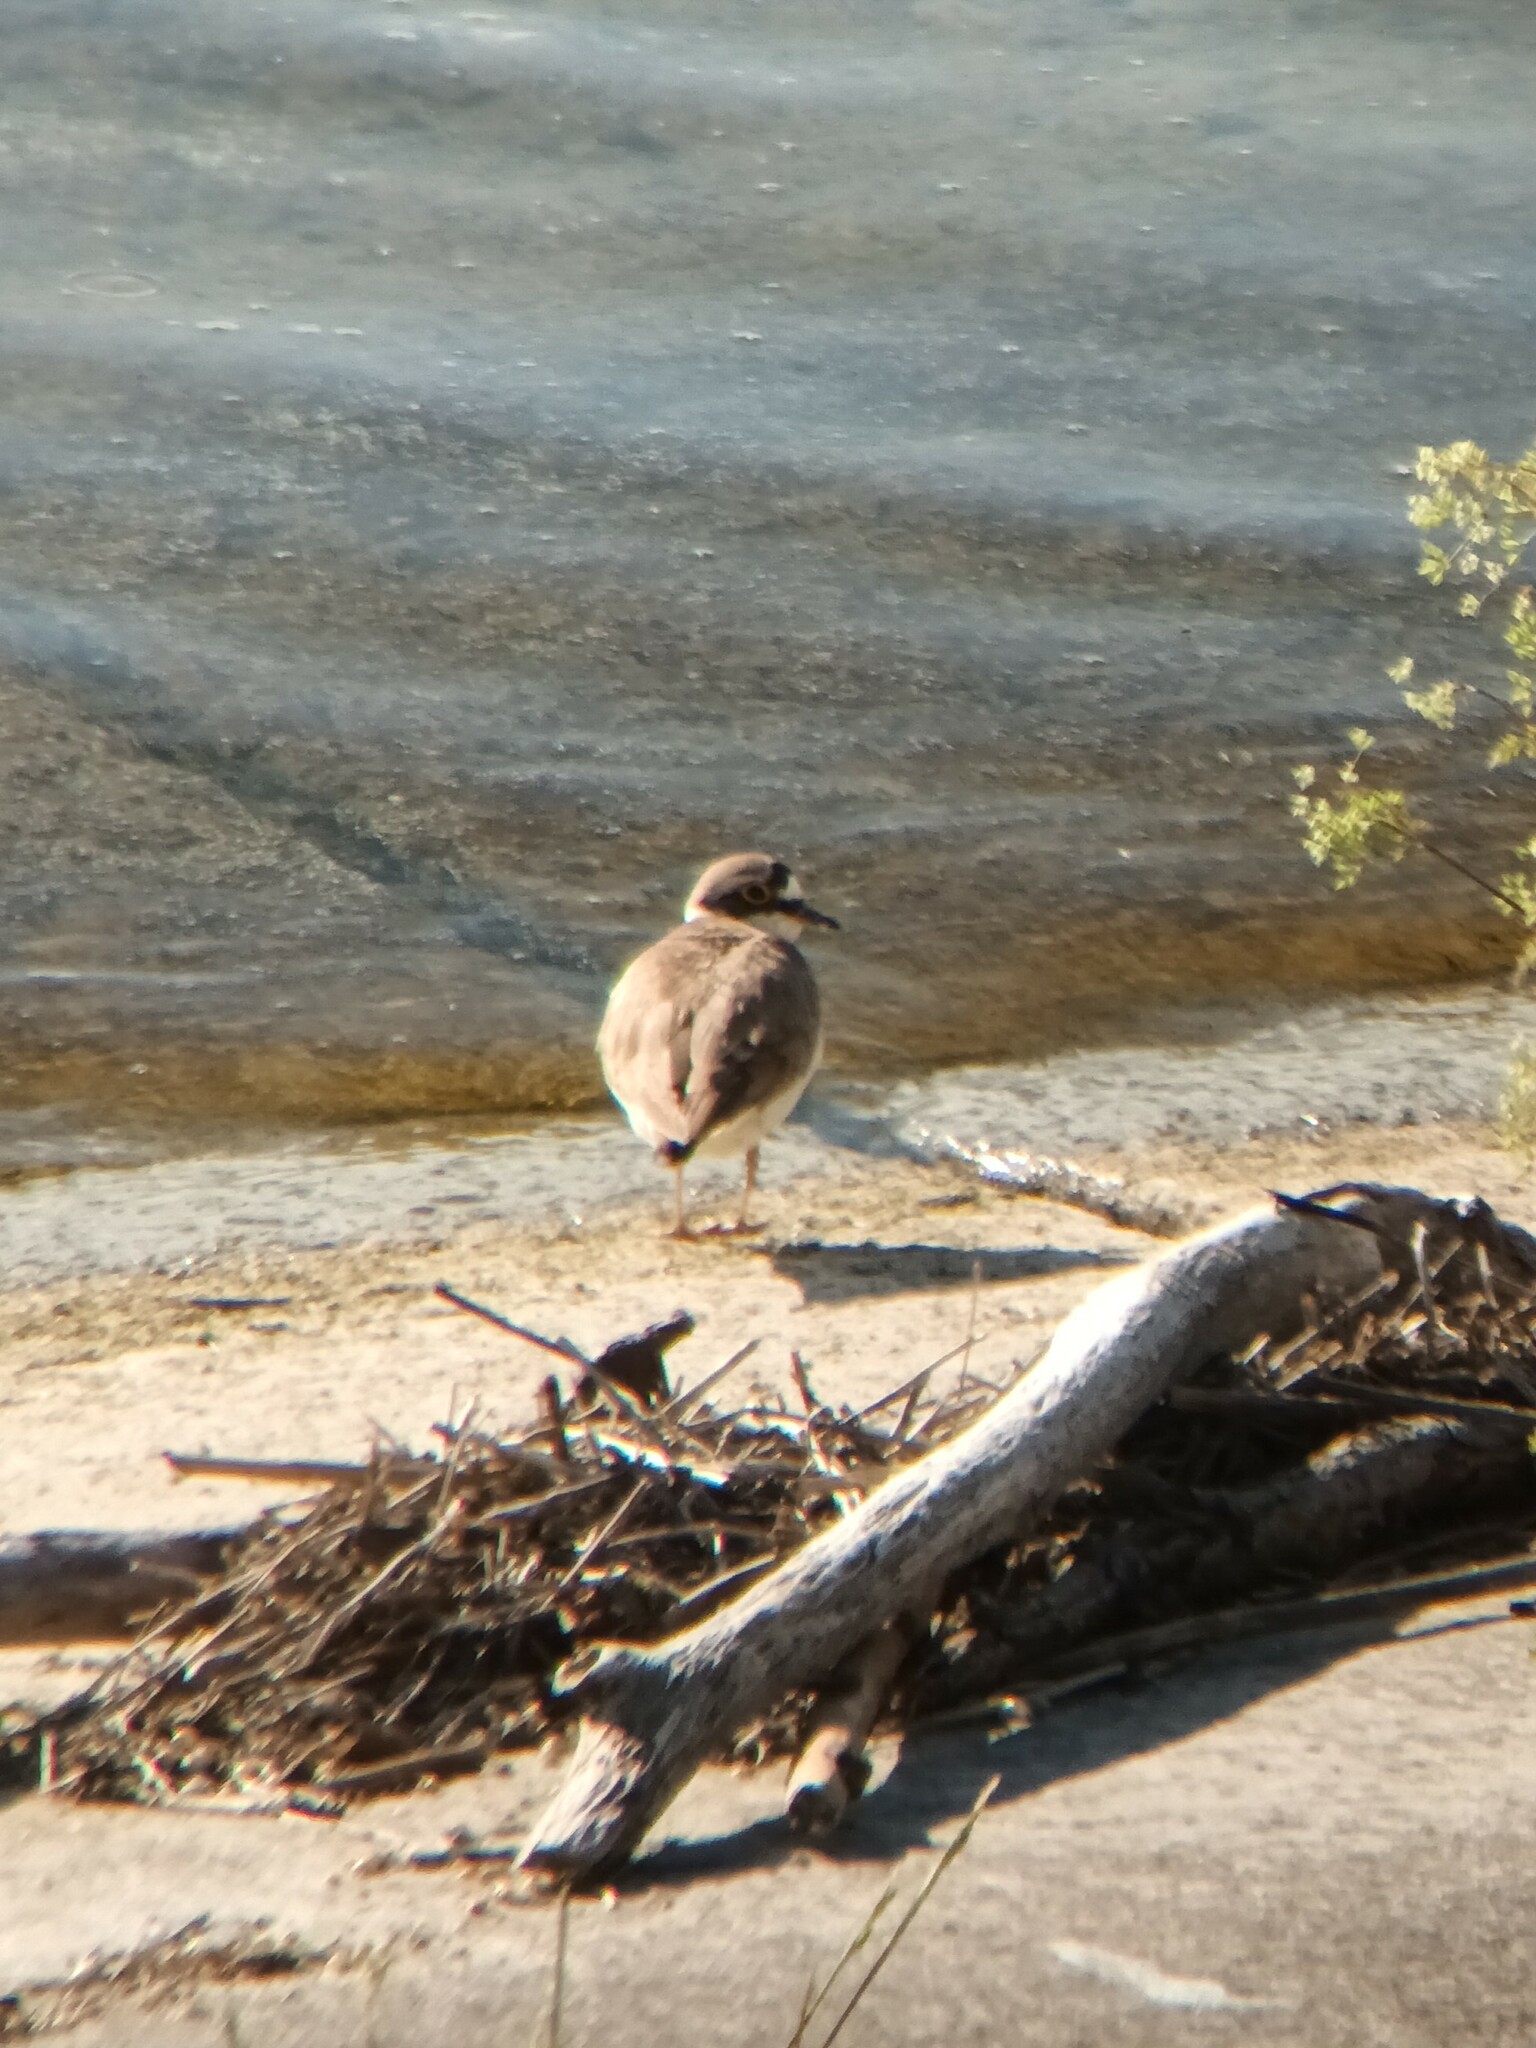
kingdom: Animalia
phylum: Chordata
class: Aves
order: Charadriiformes
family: Charadriidae
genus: Charadrius
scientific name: Charadrius dubius
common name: Little ringed plover
